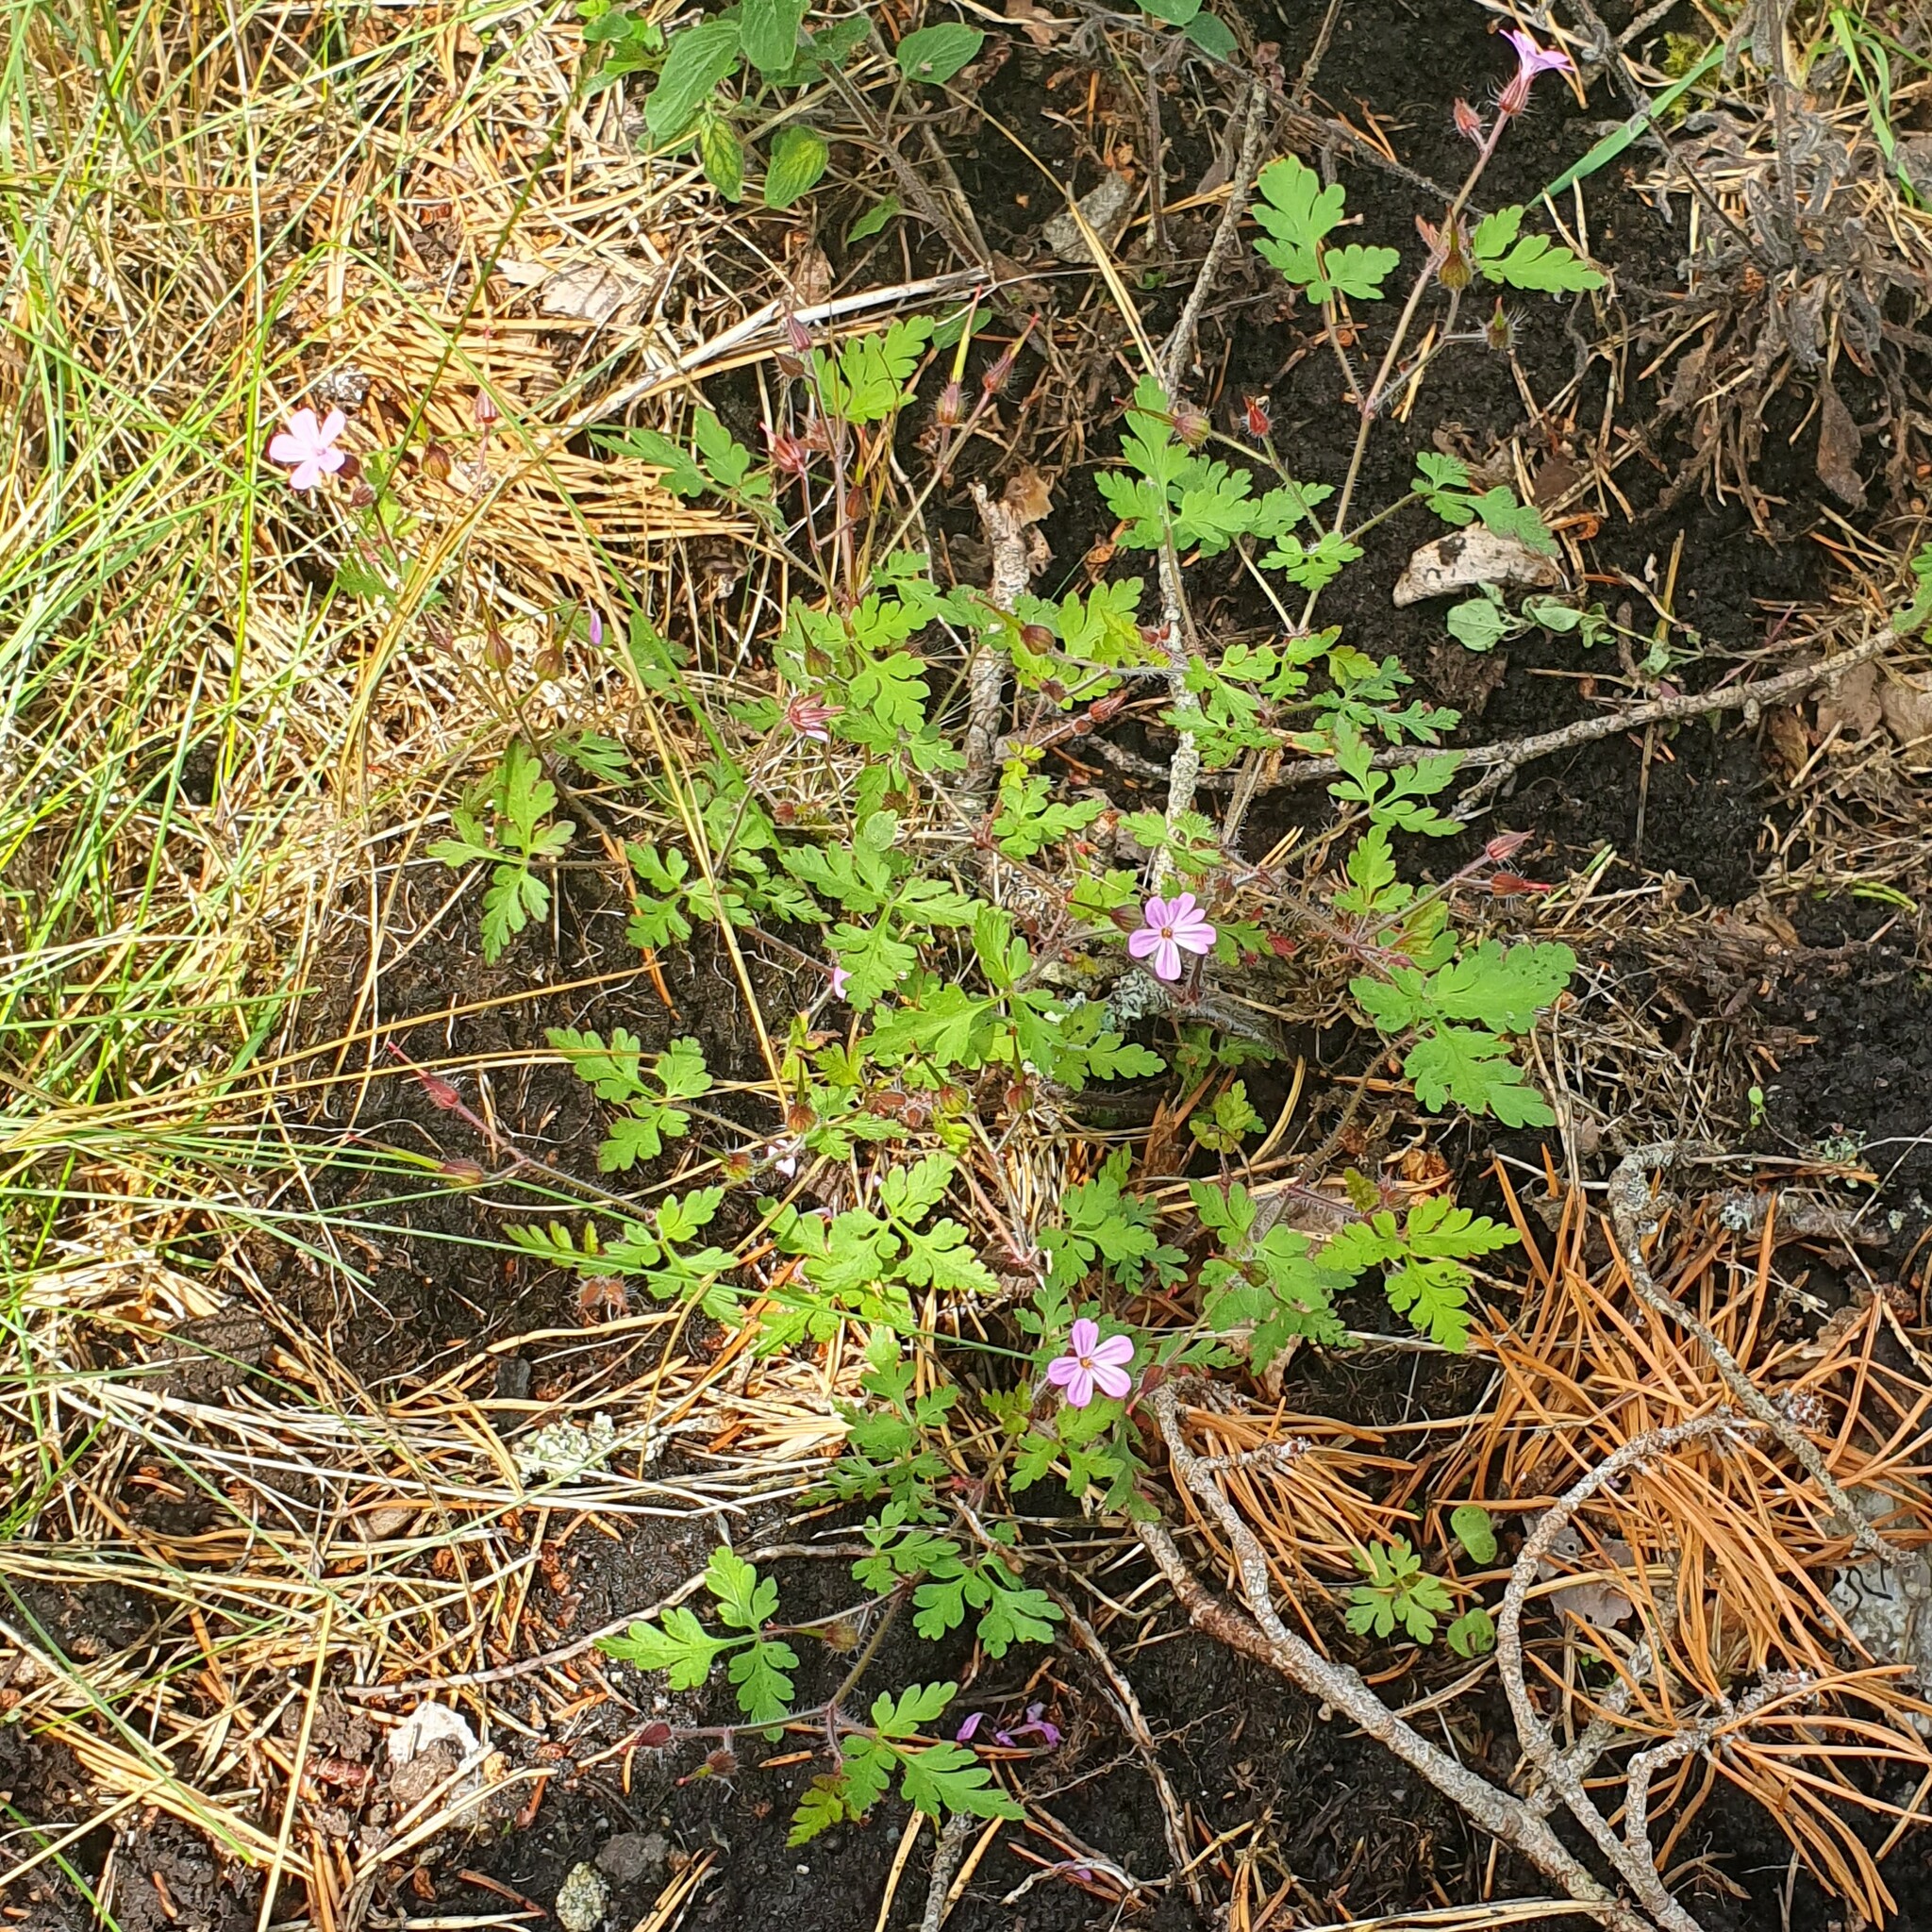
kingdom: Plantae
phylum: Tracheophyta
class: Magnoliopsida
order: Geraniales
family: Geraniaceae
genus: Geranium
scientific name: Geranium robertianum
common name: Herb-robert
